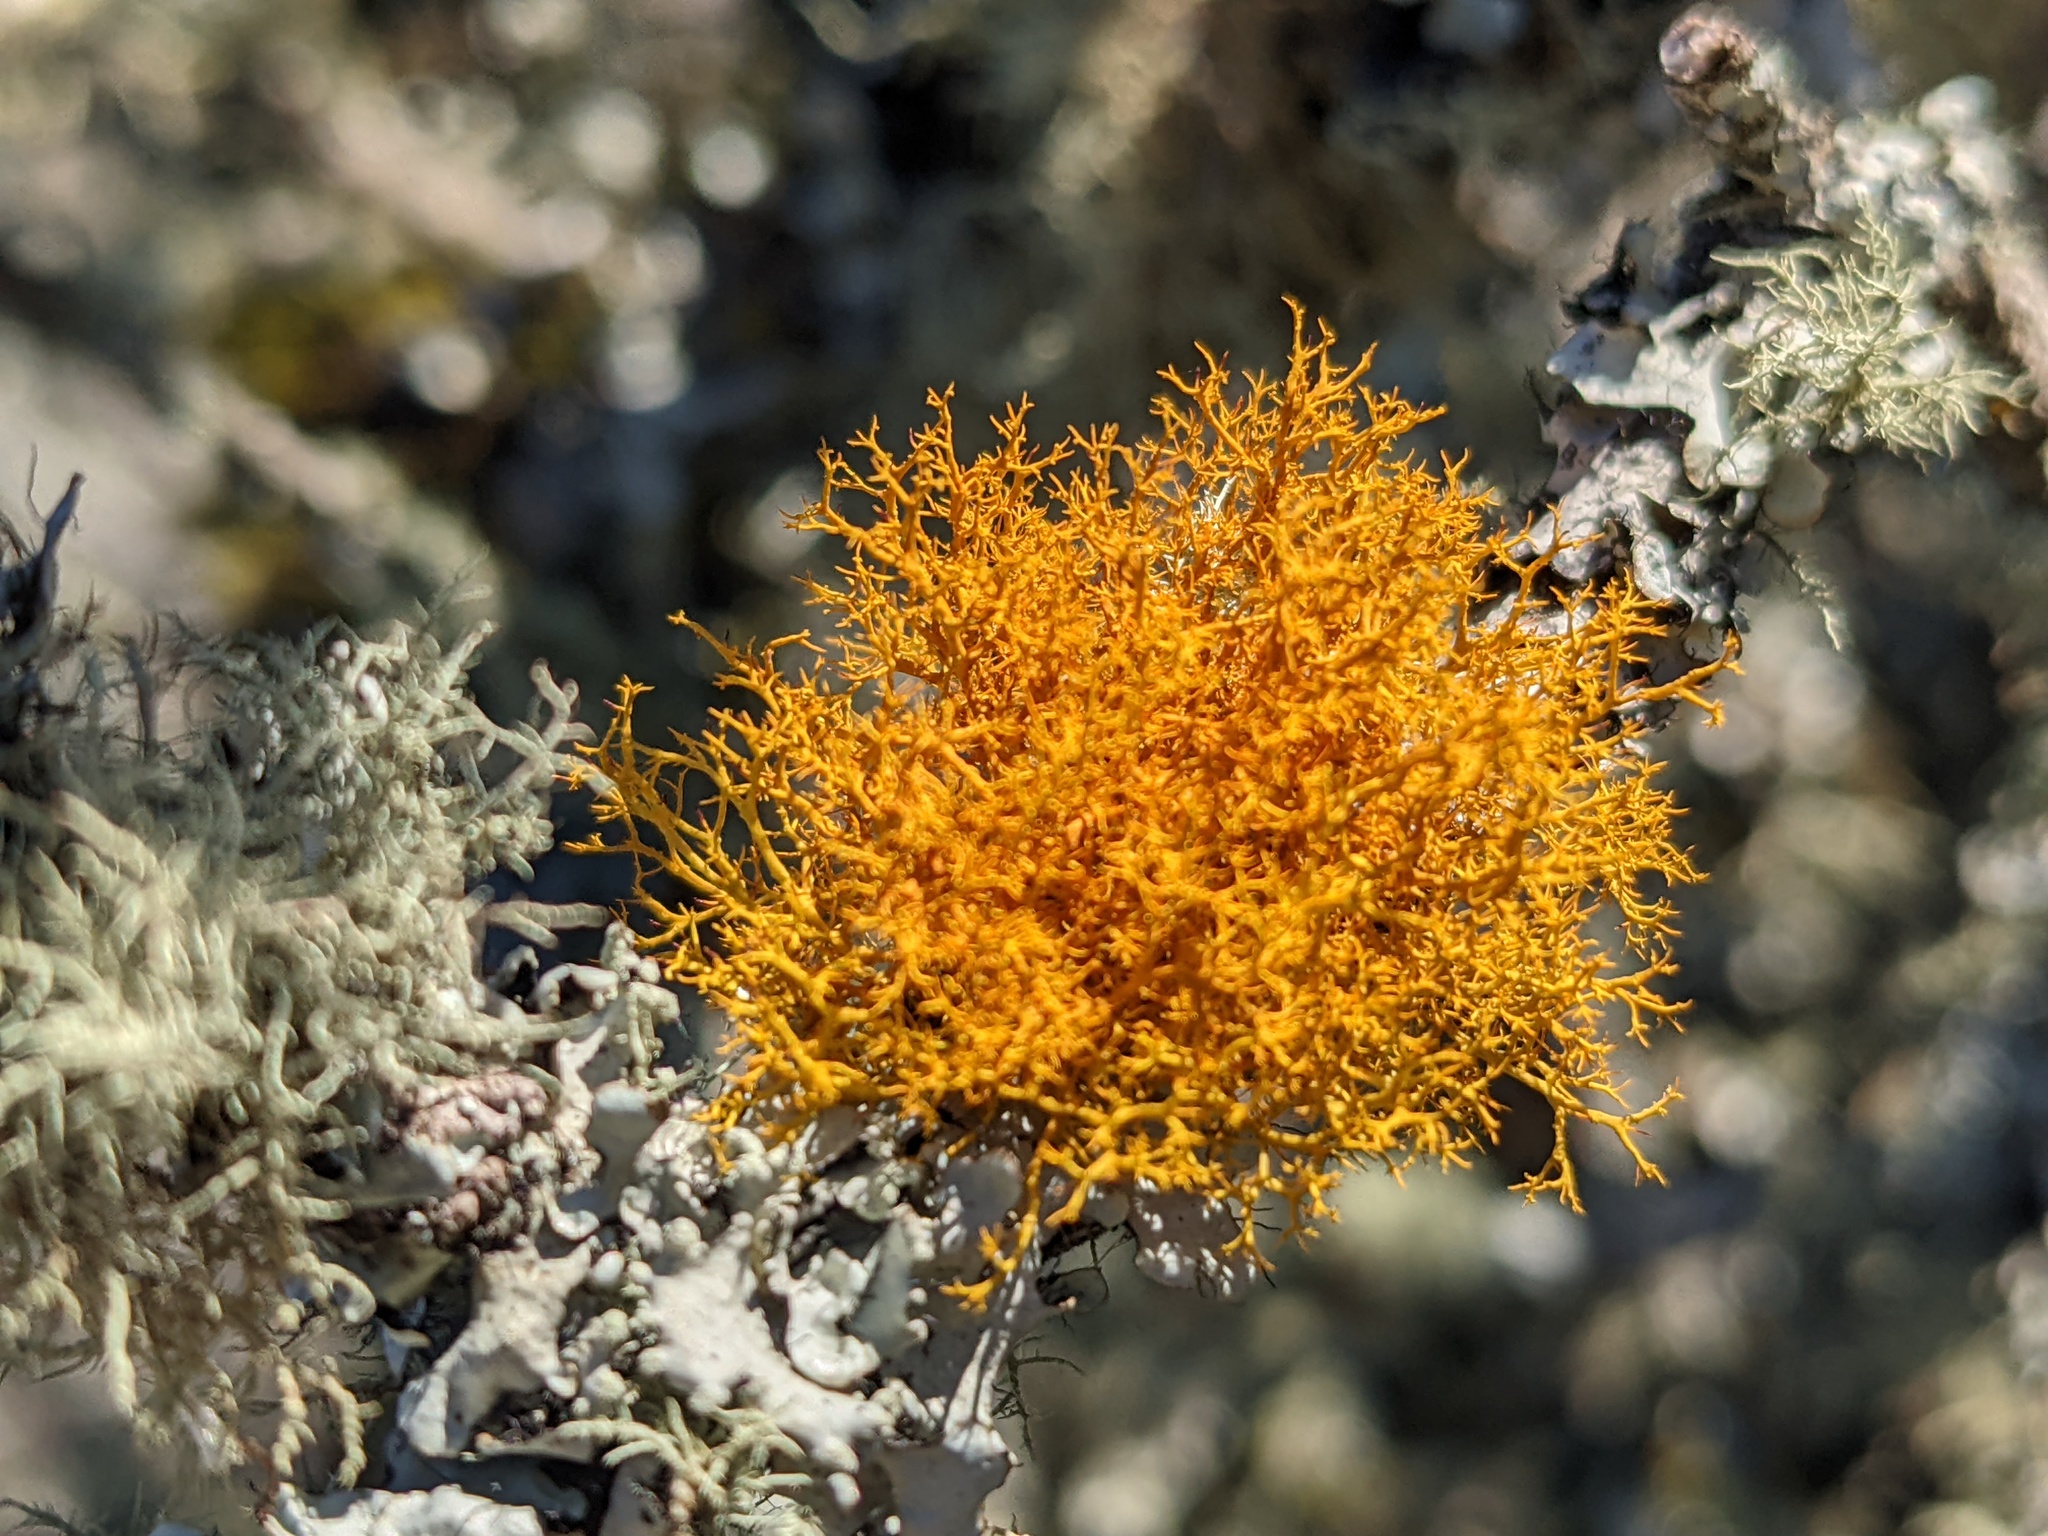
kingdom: Fungi
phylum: Ascomycota
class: Lecanoromycetes
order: Teloschistales
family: Teloschistaceae
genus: Teloschistes
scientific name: Teloschistes flavicans
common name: Golden hair-lichen
